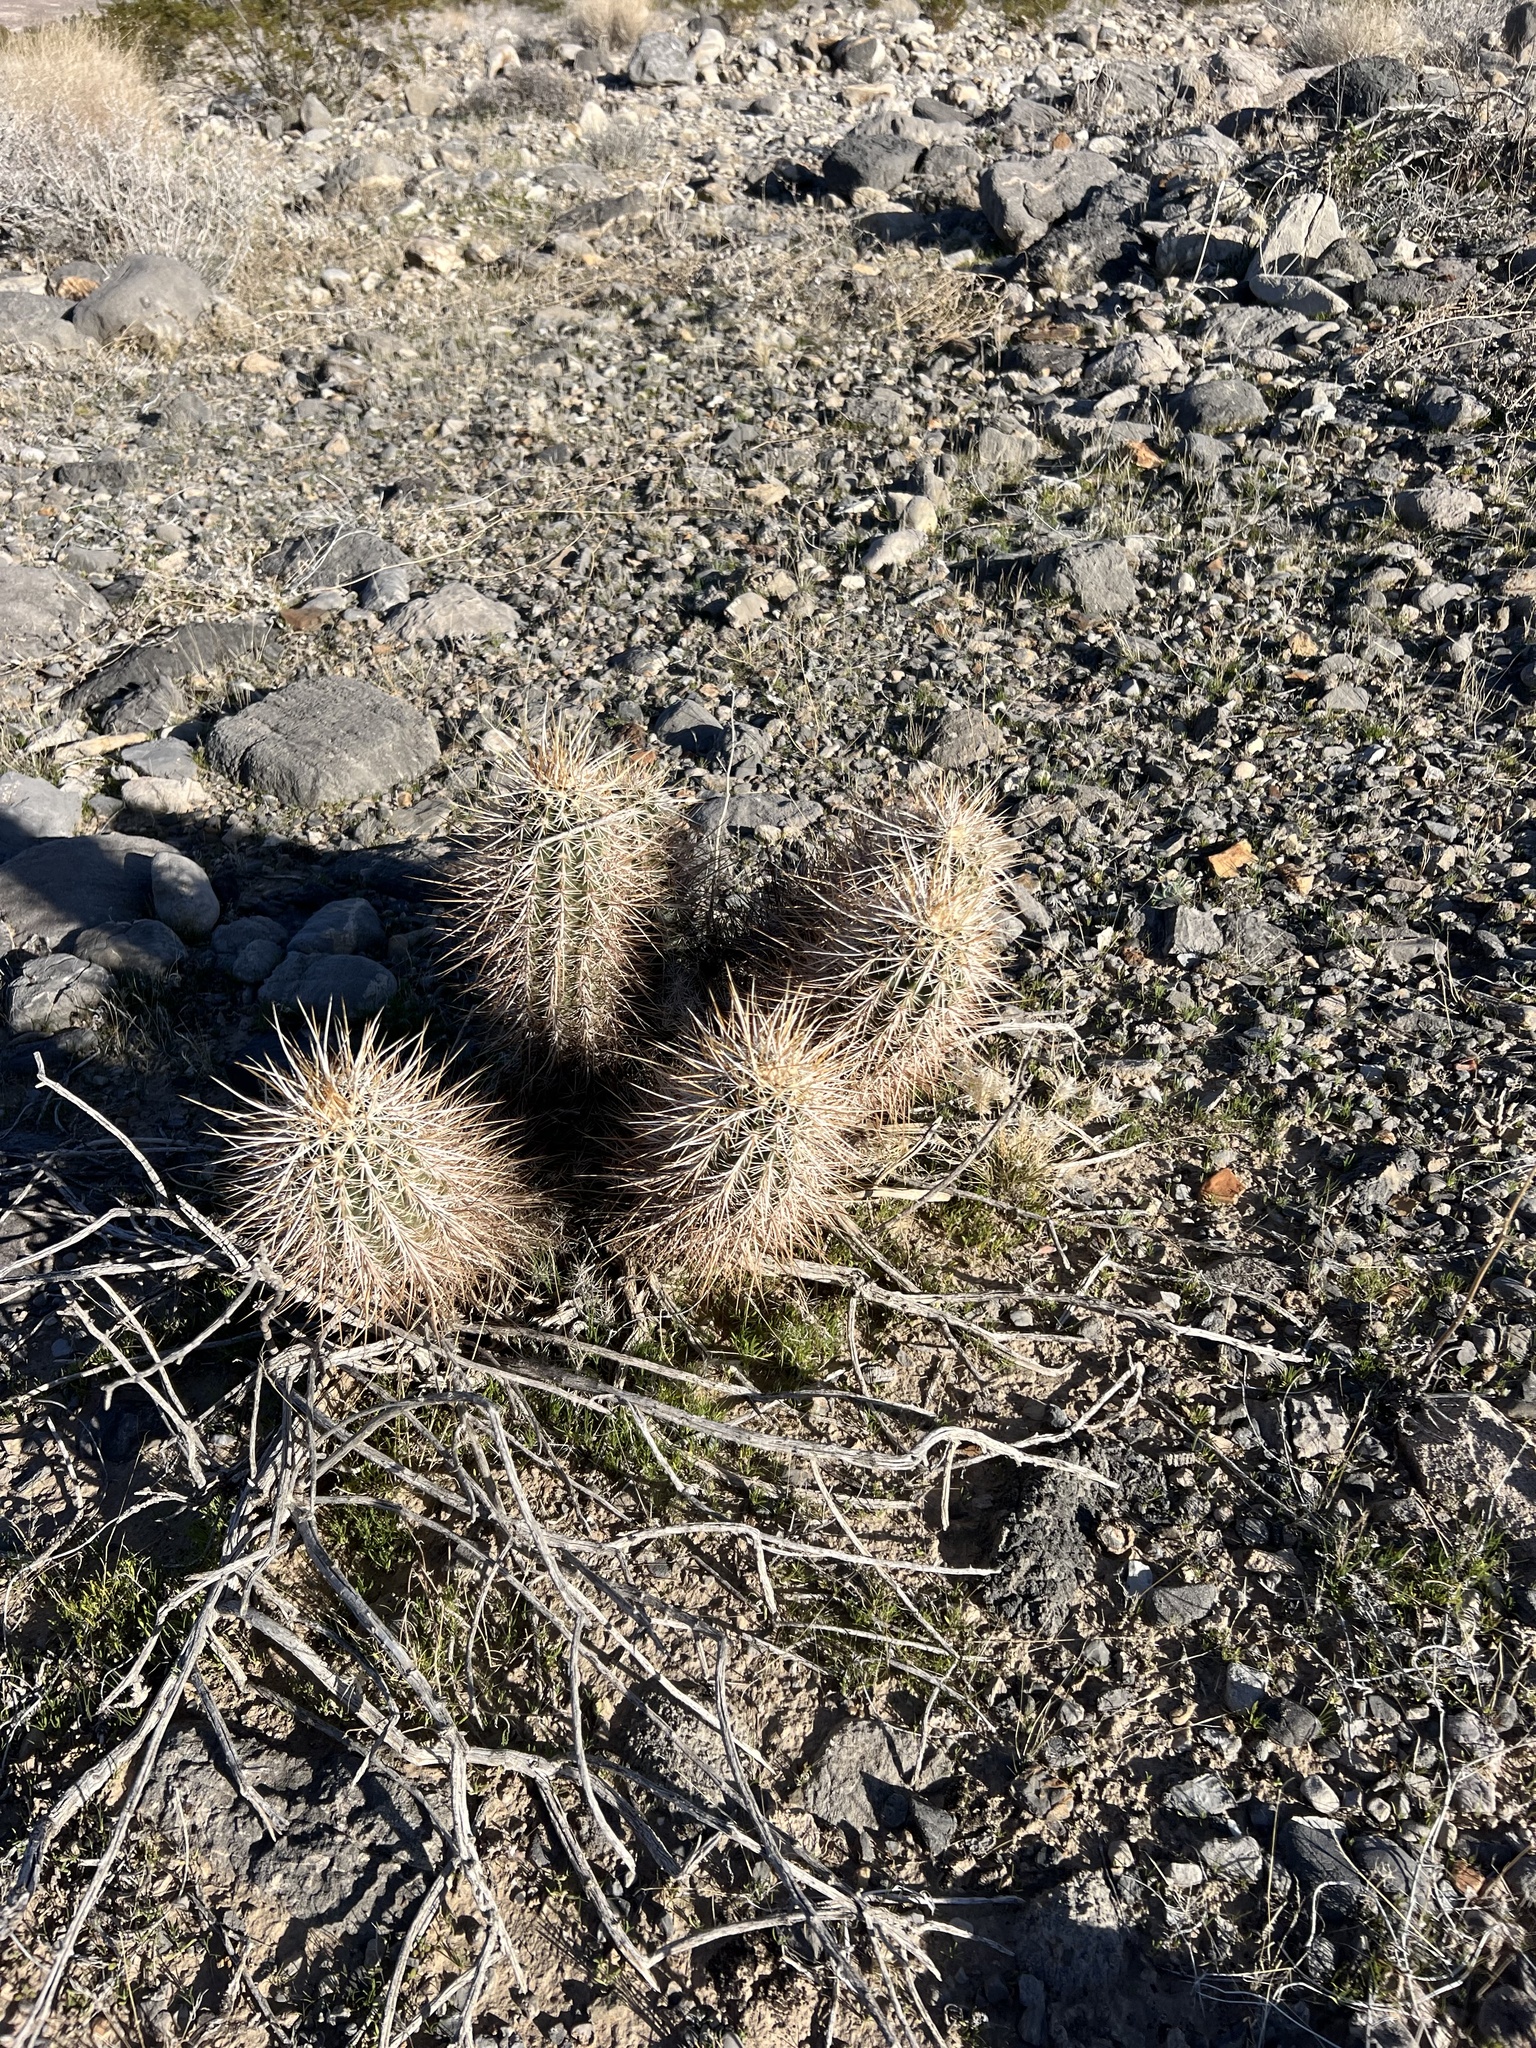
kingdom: Plantae
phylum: Tracheophyta
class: Magnoliopsida
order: Caryophyllales
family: Cactaceae
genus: Echinocereus
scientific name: Echinocereus engelmannii
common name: Engelmann's hedgehog cactus
